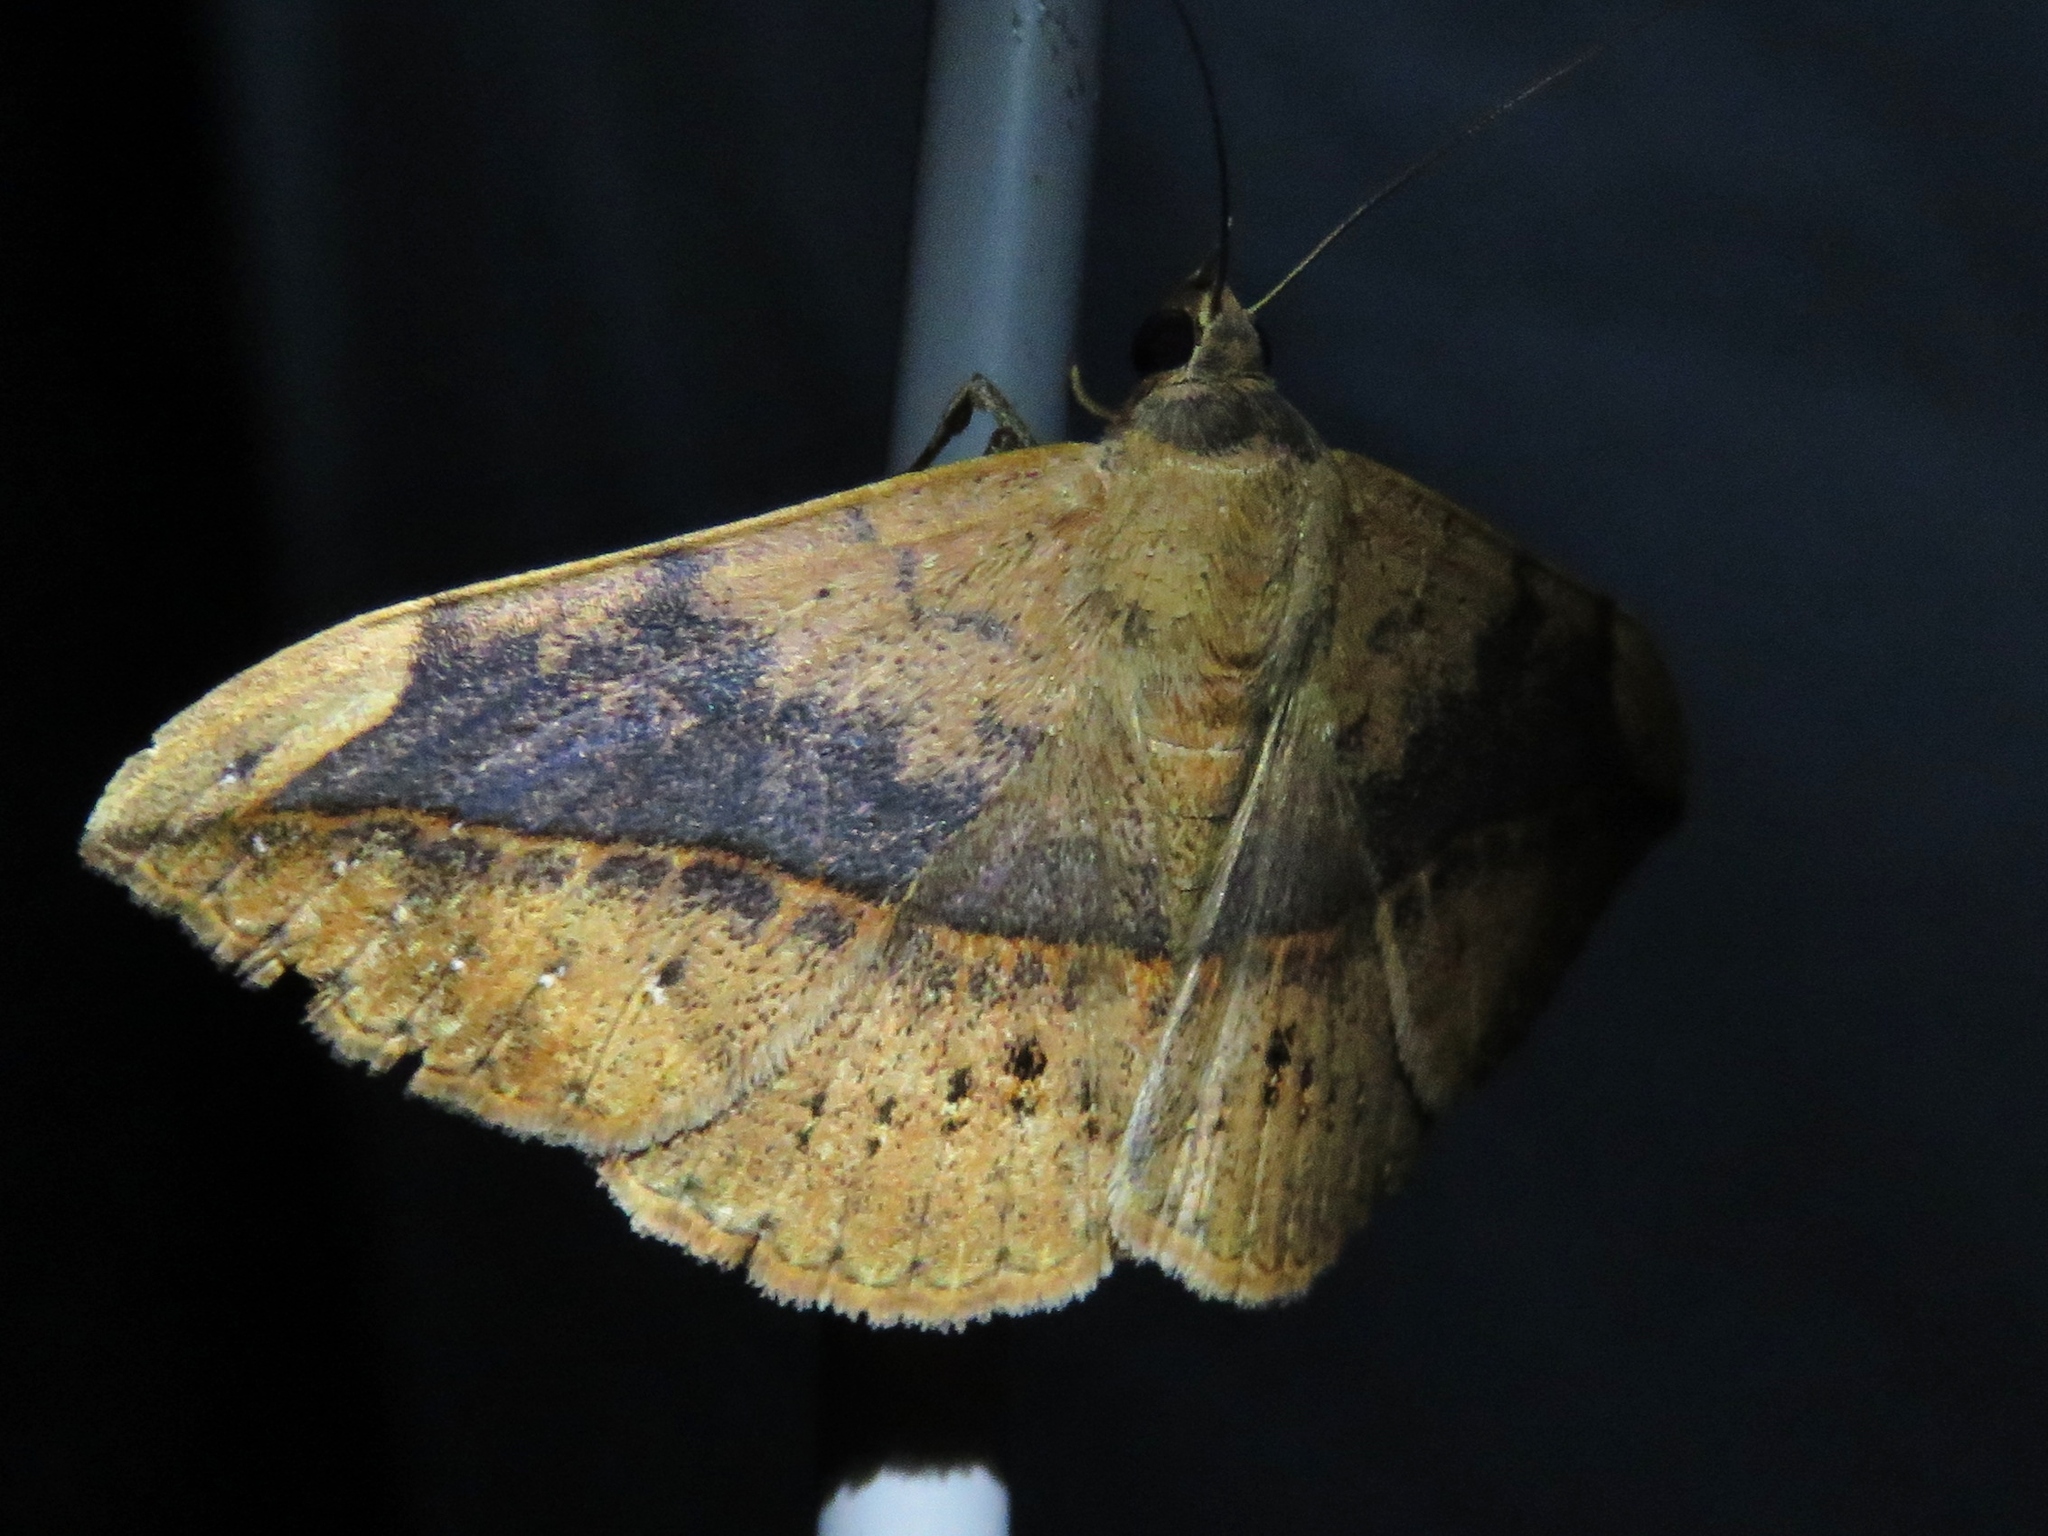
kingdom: Animalia
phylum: Arthropoda
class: Insecta
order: Lepidoptera
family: Erebidae
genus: Anticarsia
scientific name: Anticarsia gemmatalis
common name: Cutworm moth
